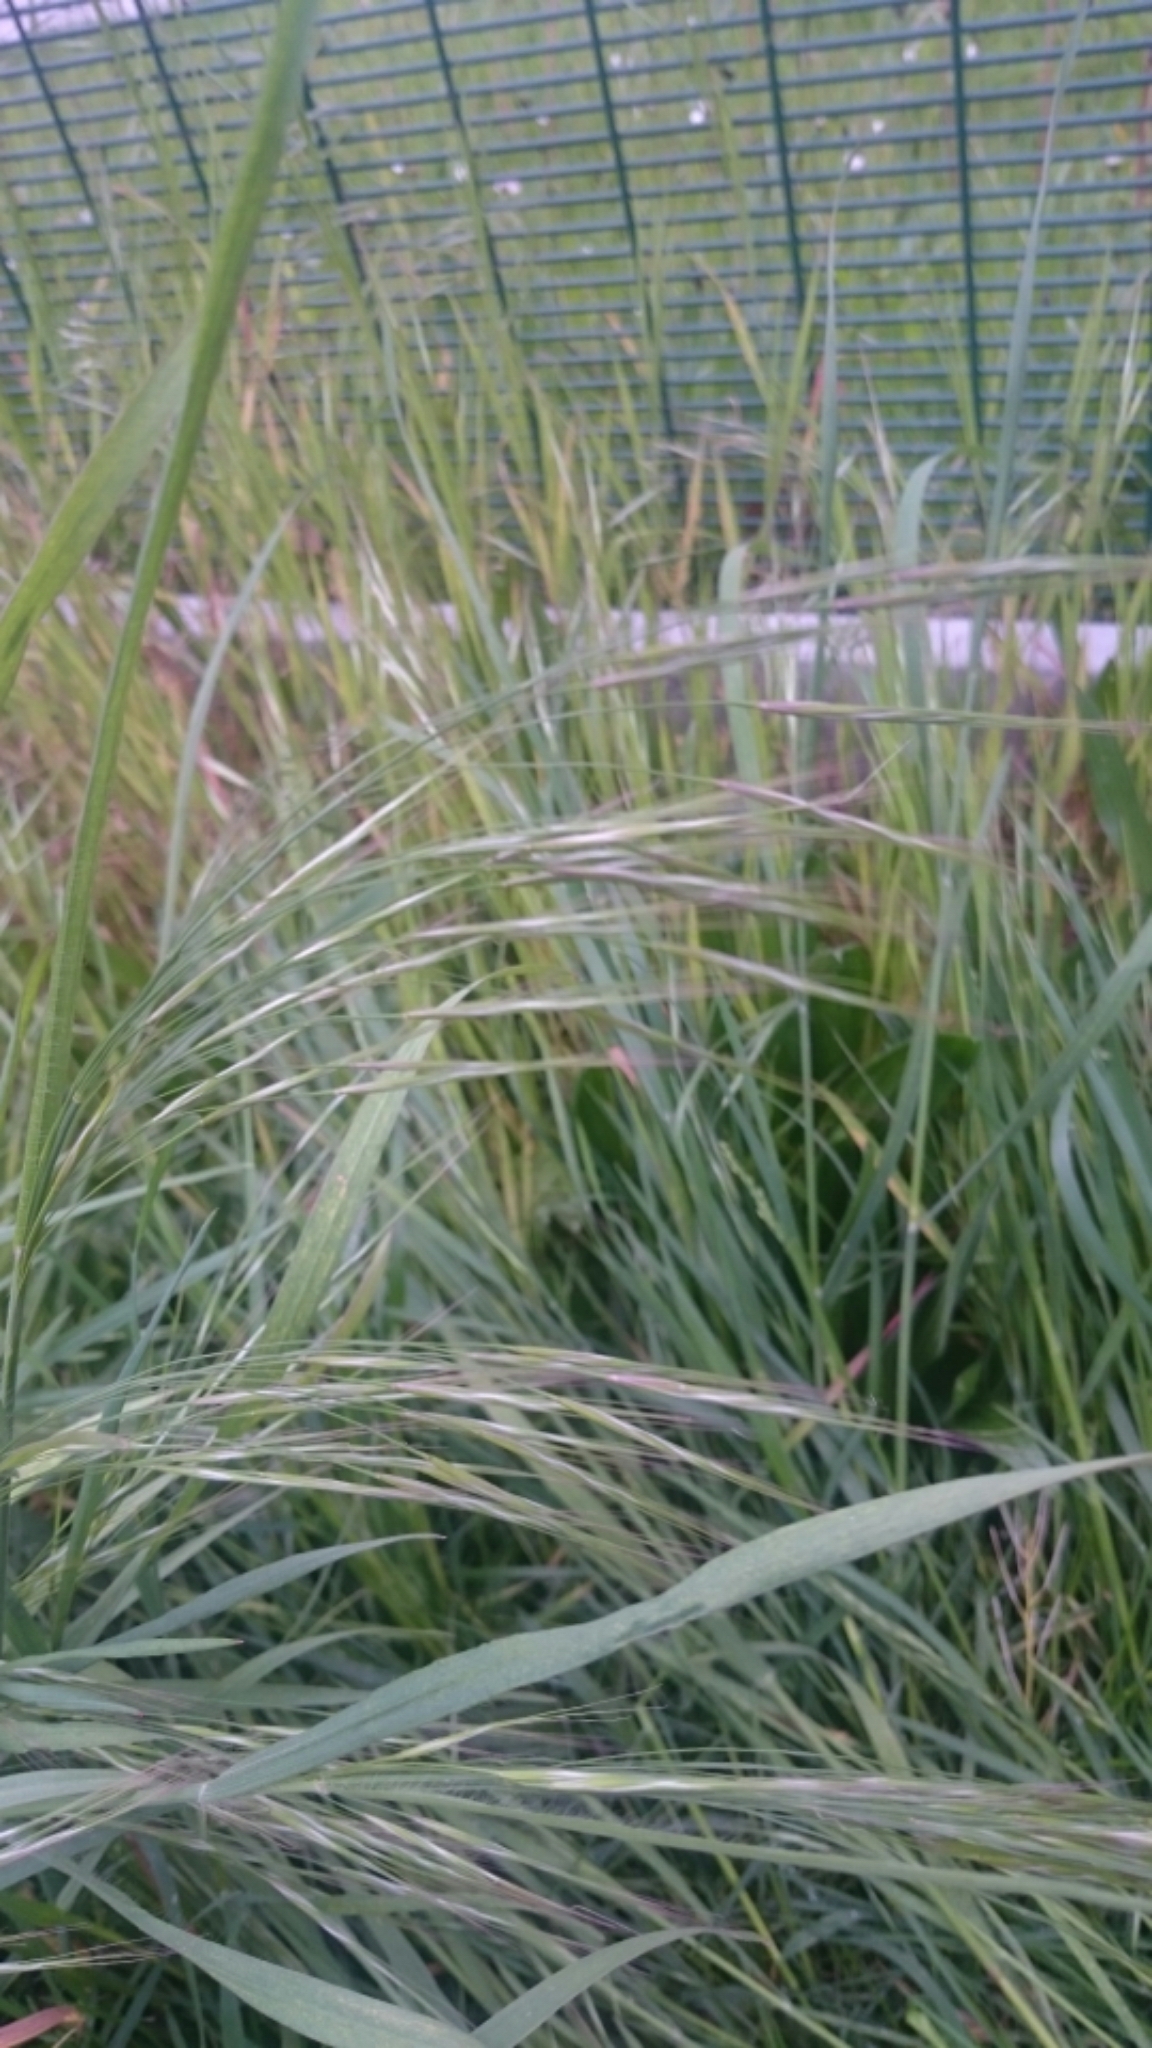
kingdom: Plantae
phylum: Tracheophyta
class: Liliopsida
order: Poales
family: Poaceae
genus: Bromus
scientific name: Bromus sterilis
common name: Poverty brome
